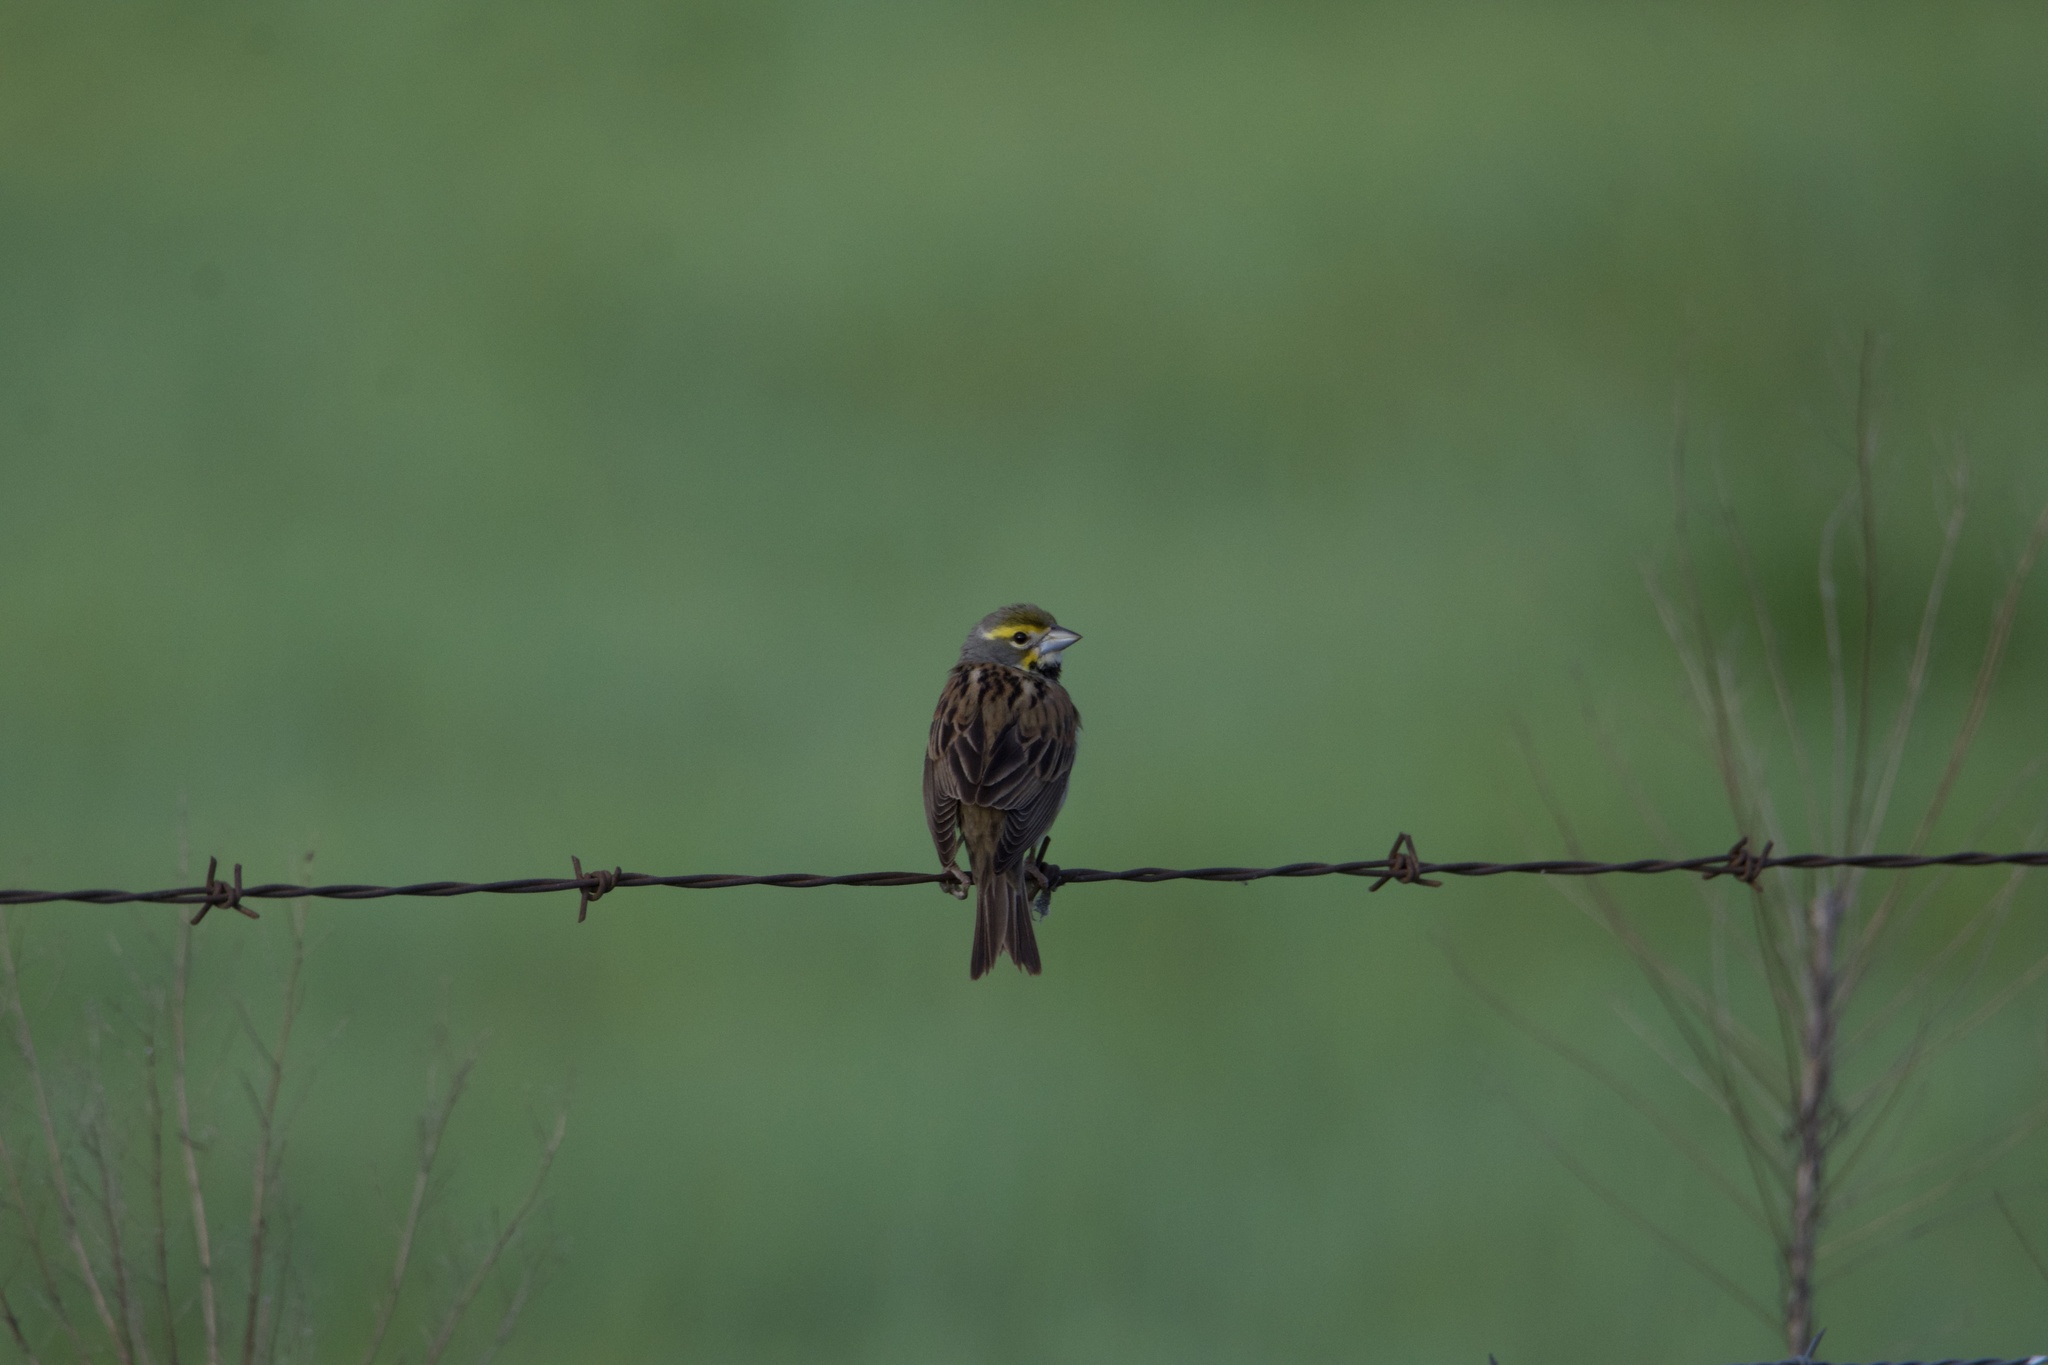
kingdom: Animalia
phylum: Chordata
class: Aves
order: Passeriformes
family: Cardinalidae
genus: Spiza
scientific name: Spiza americana
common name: Dickcissel
